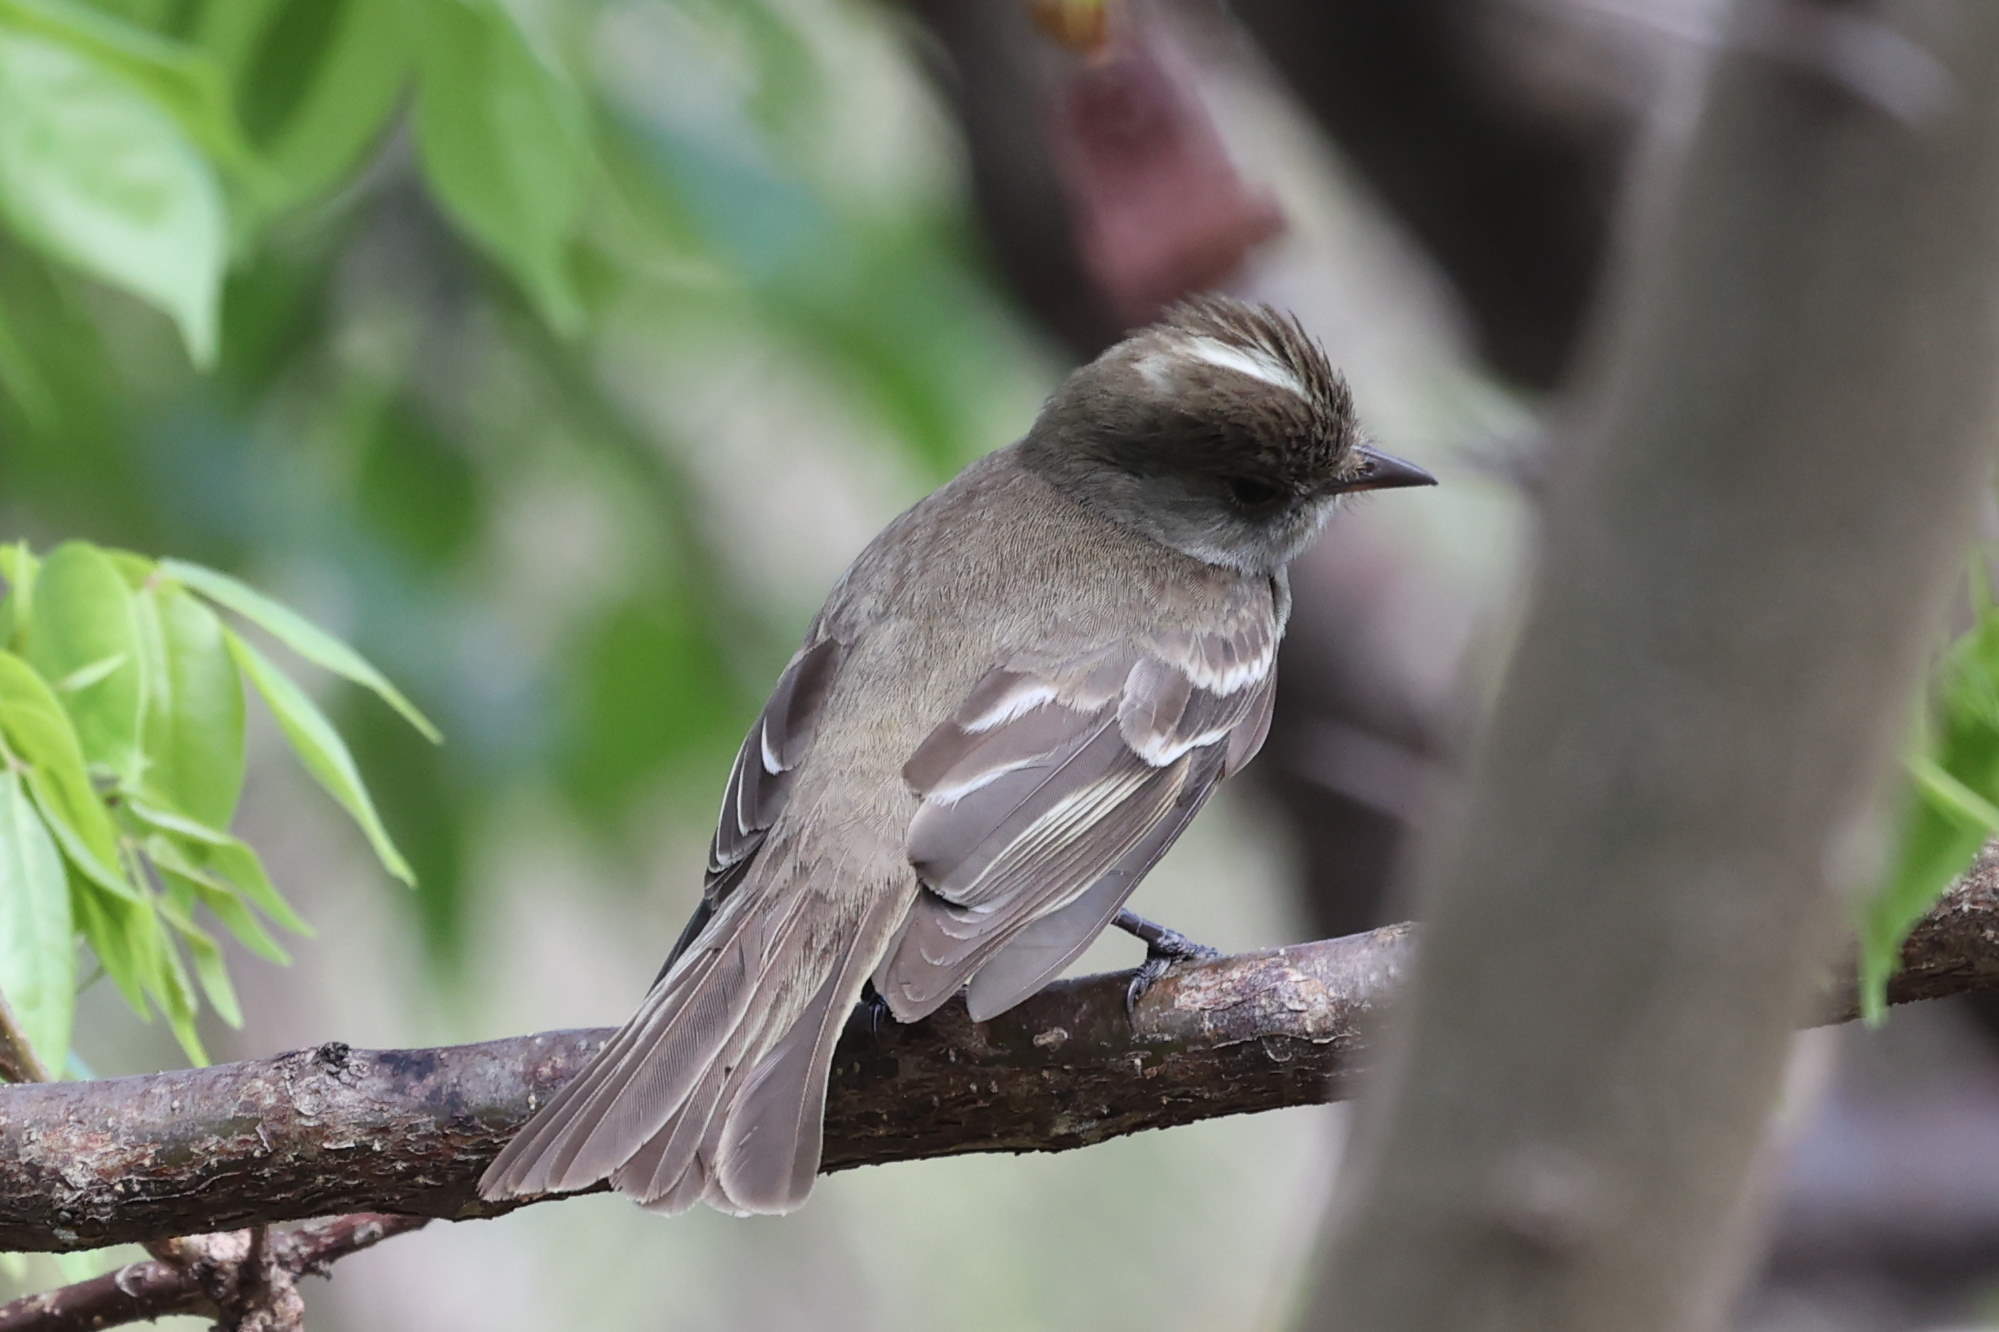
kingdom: Animalia
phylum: Chordata
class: Aves
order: Passeriformes
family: Tyrannidae
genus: Elaenia
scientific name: Elaenia martinica
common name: Caribbean elaenia
